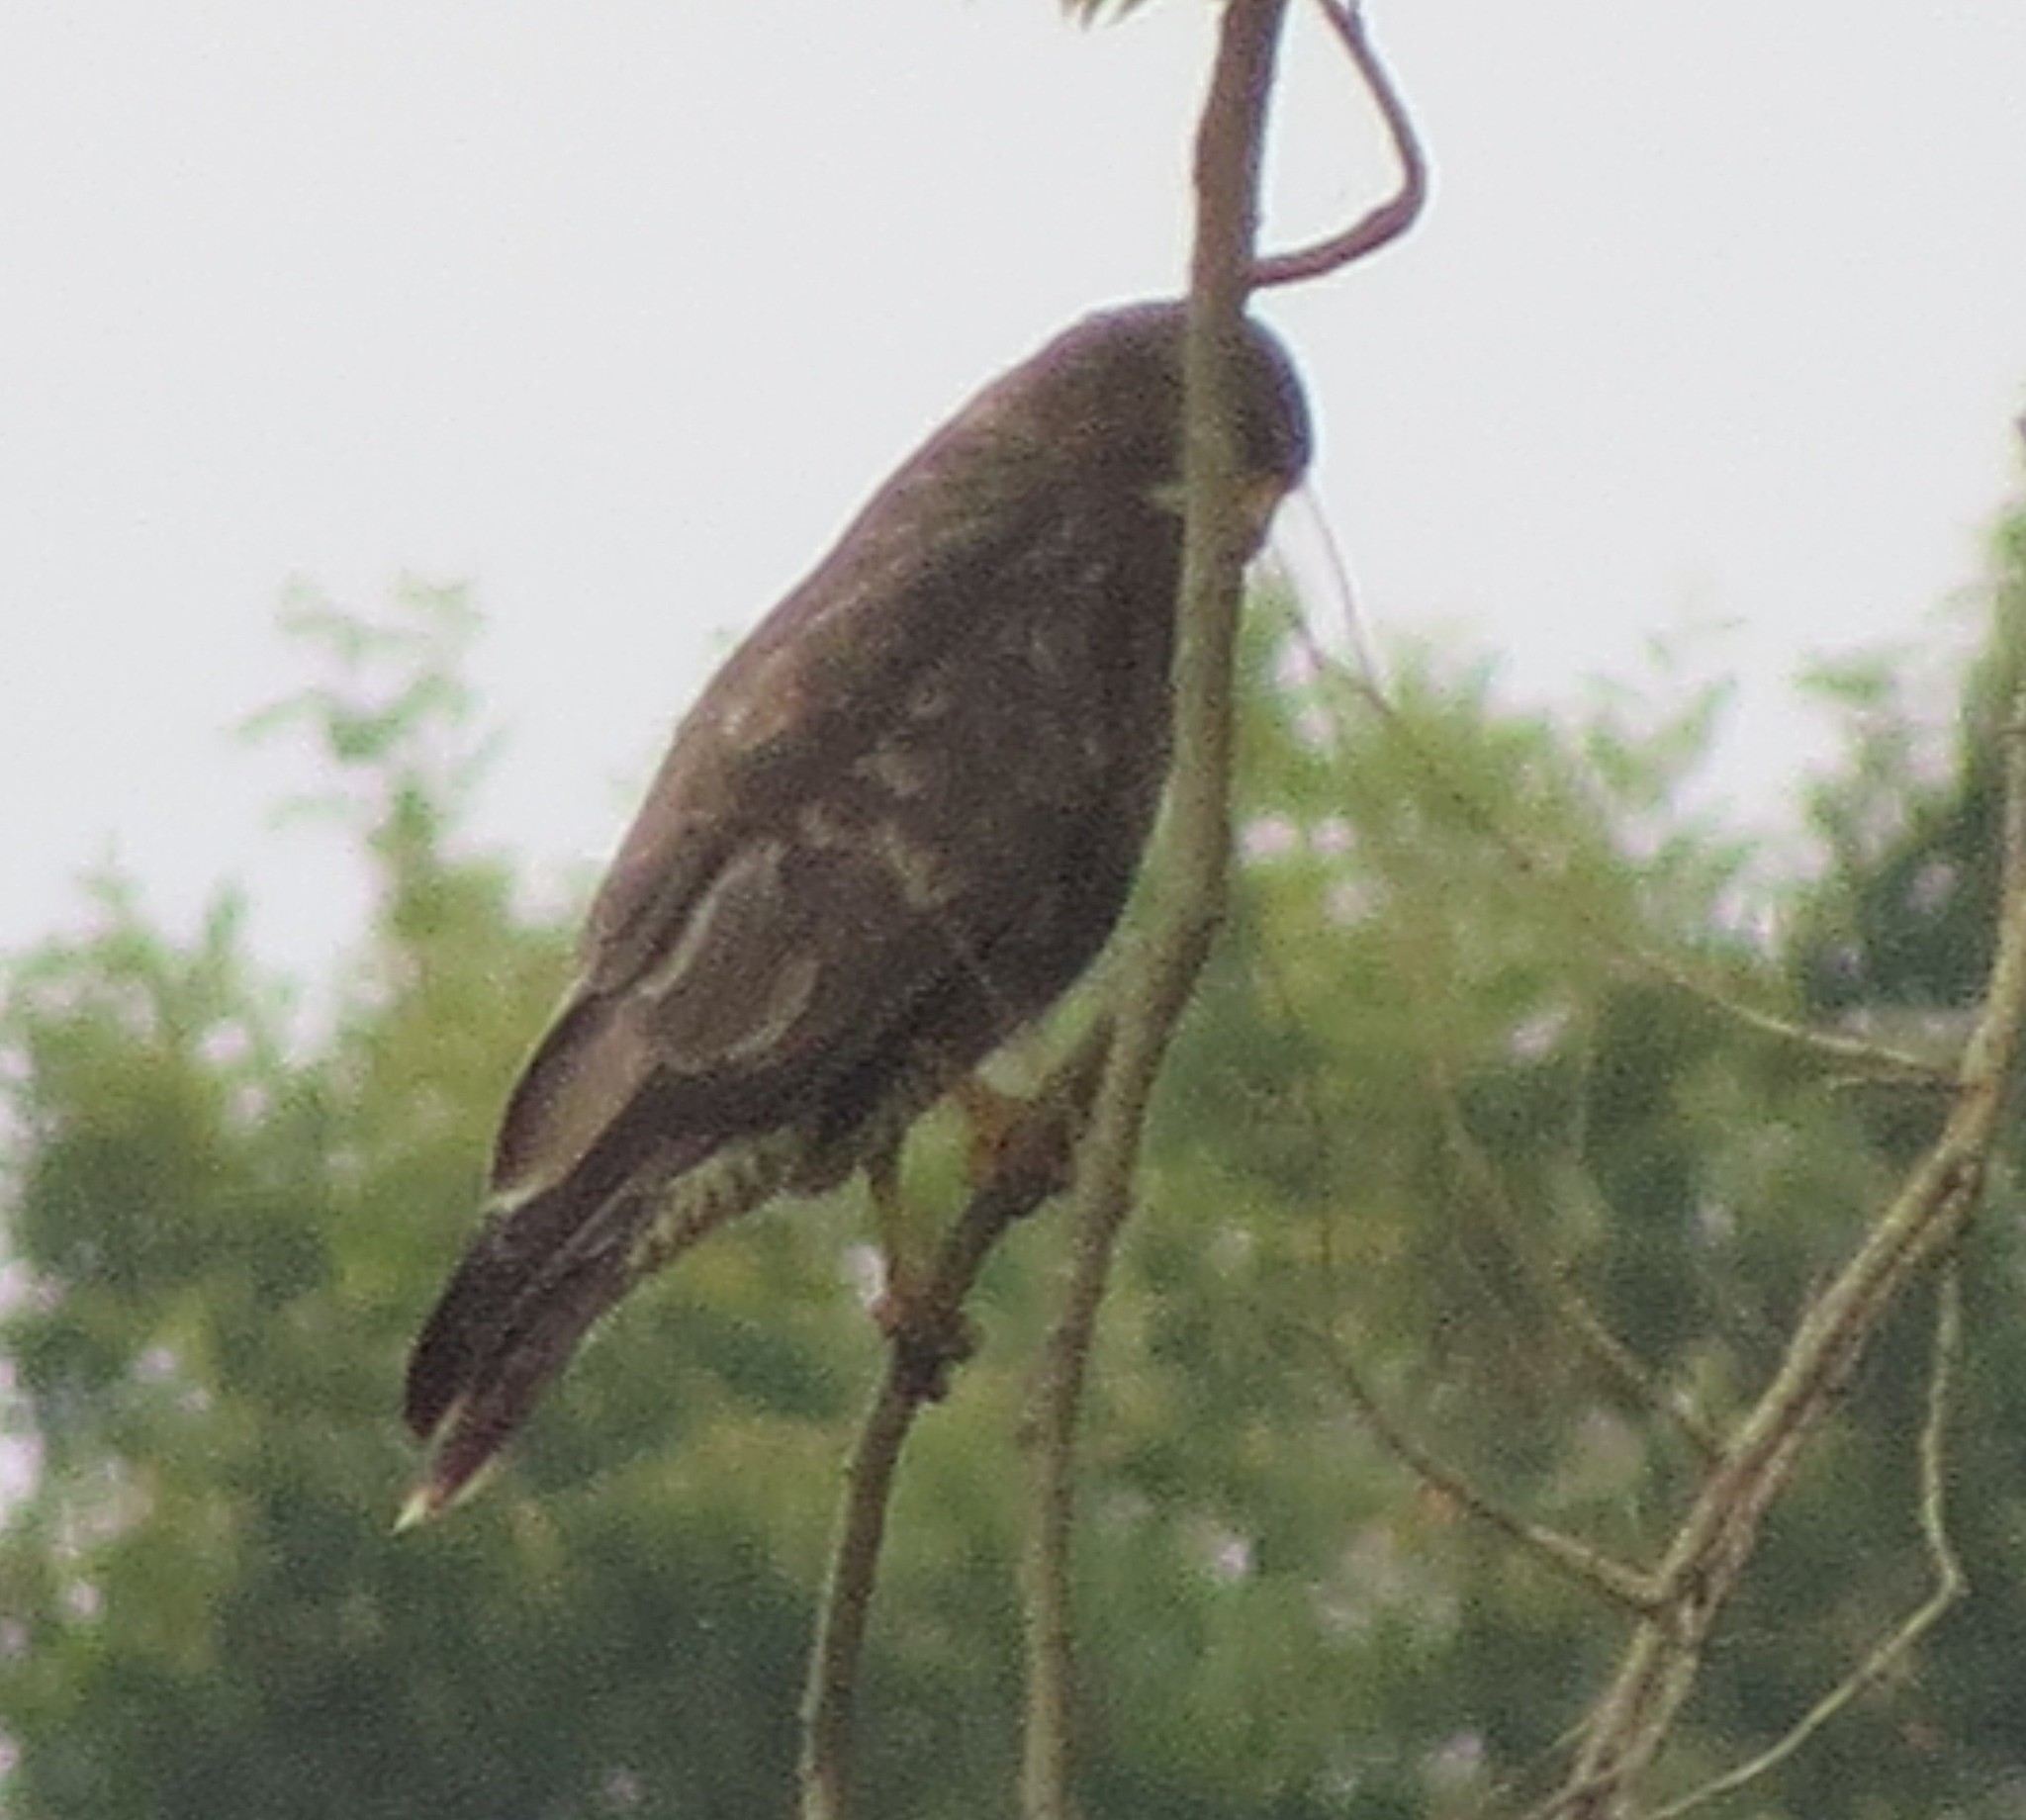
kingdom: Animalia
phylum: Chordata
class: Aves
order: Accipitriformes
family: Accipitridae
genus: Buteo
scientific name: Buteo buteo
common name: Common buzzard
